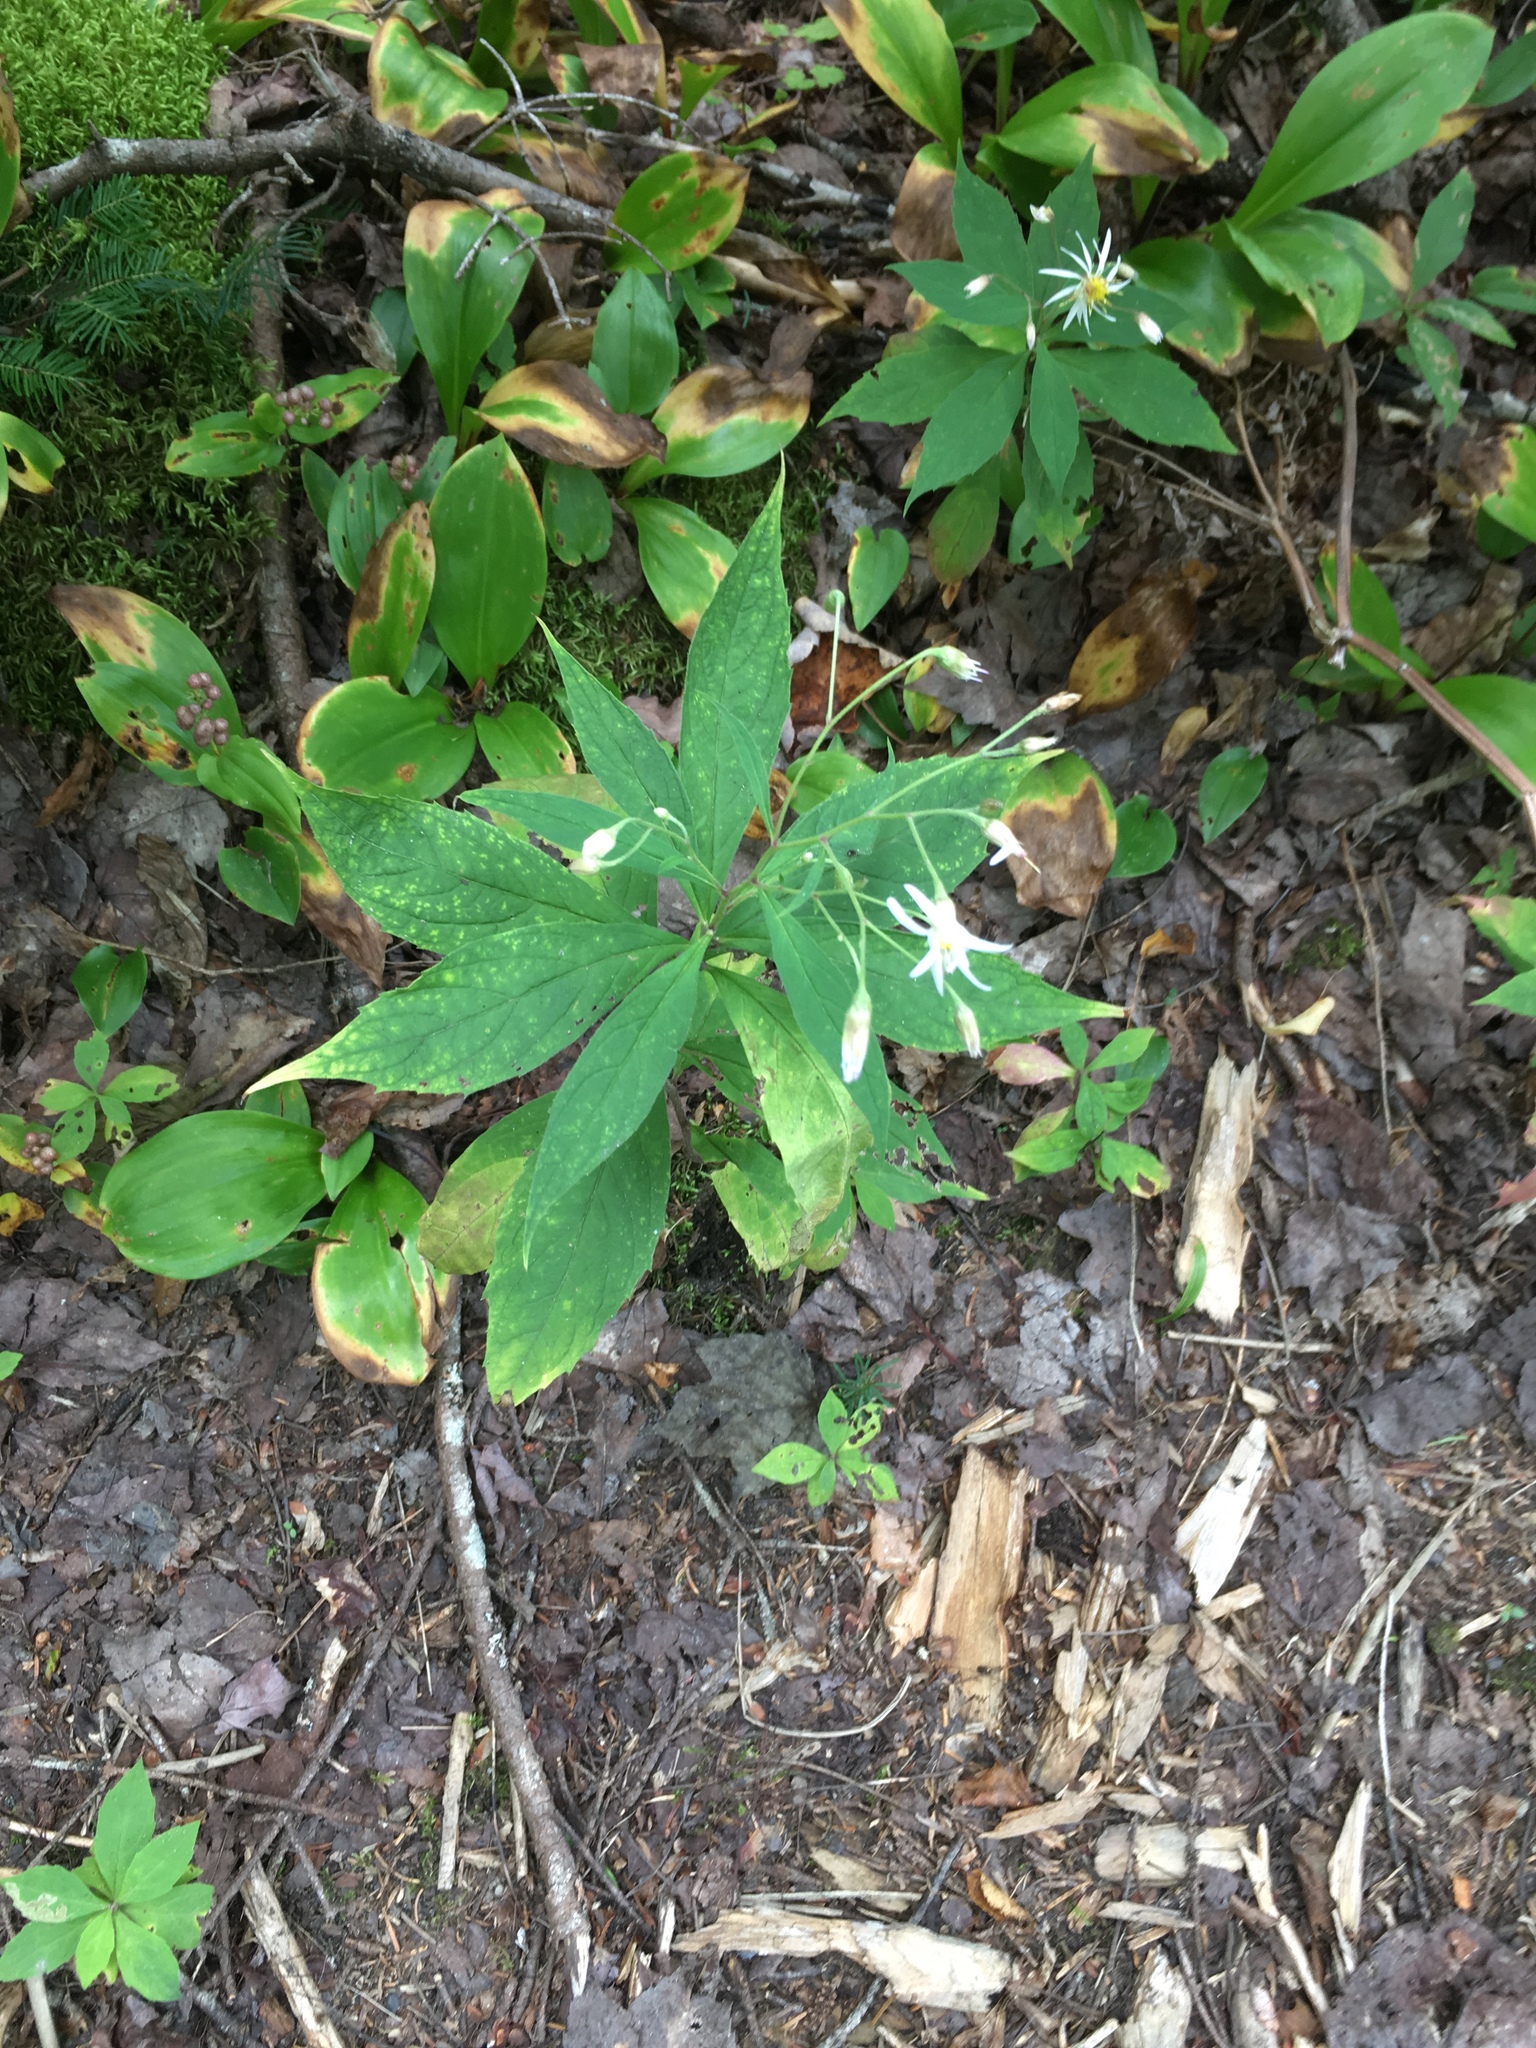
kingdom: Plantae
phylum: Tracheophyta
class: Magnoliopsida
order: Asterales
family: Asteraceae
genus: Oclemena
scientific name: Oclemena acuminata
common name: Mountain aster
